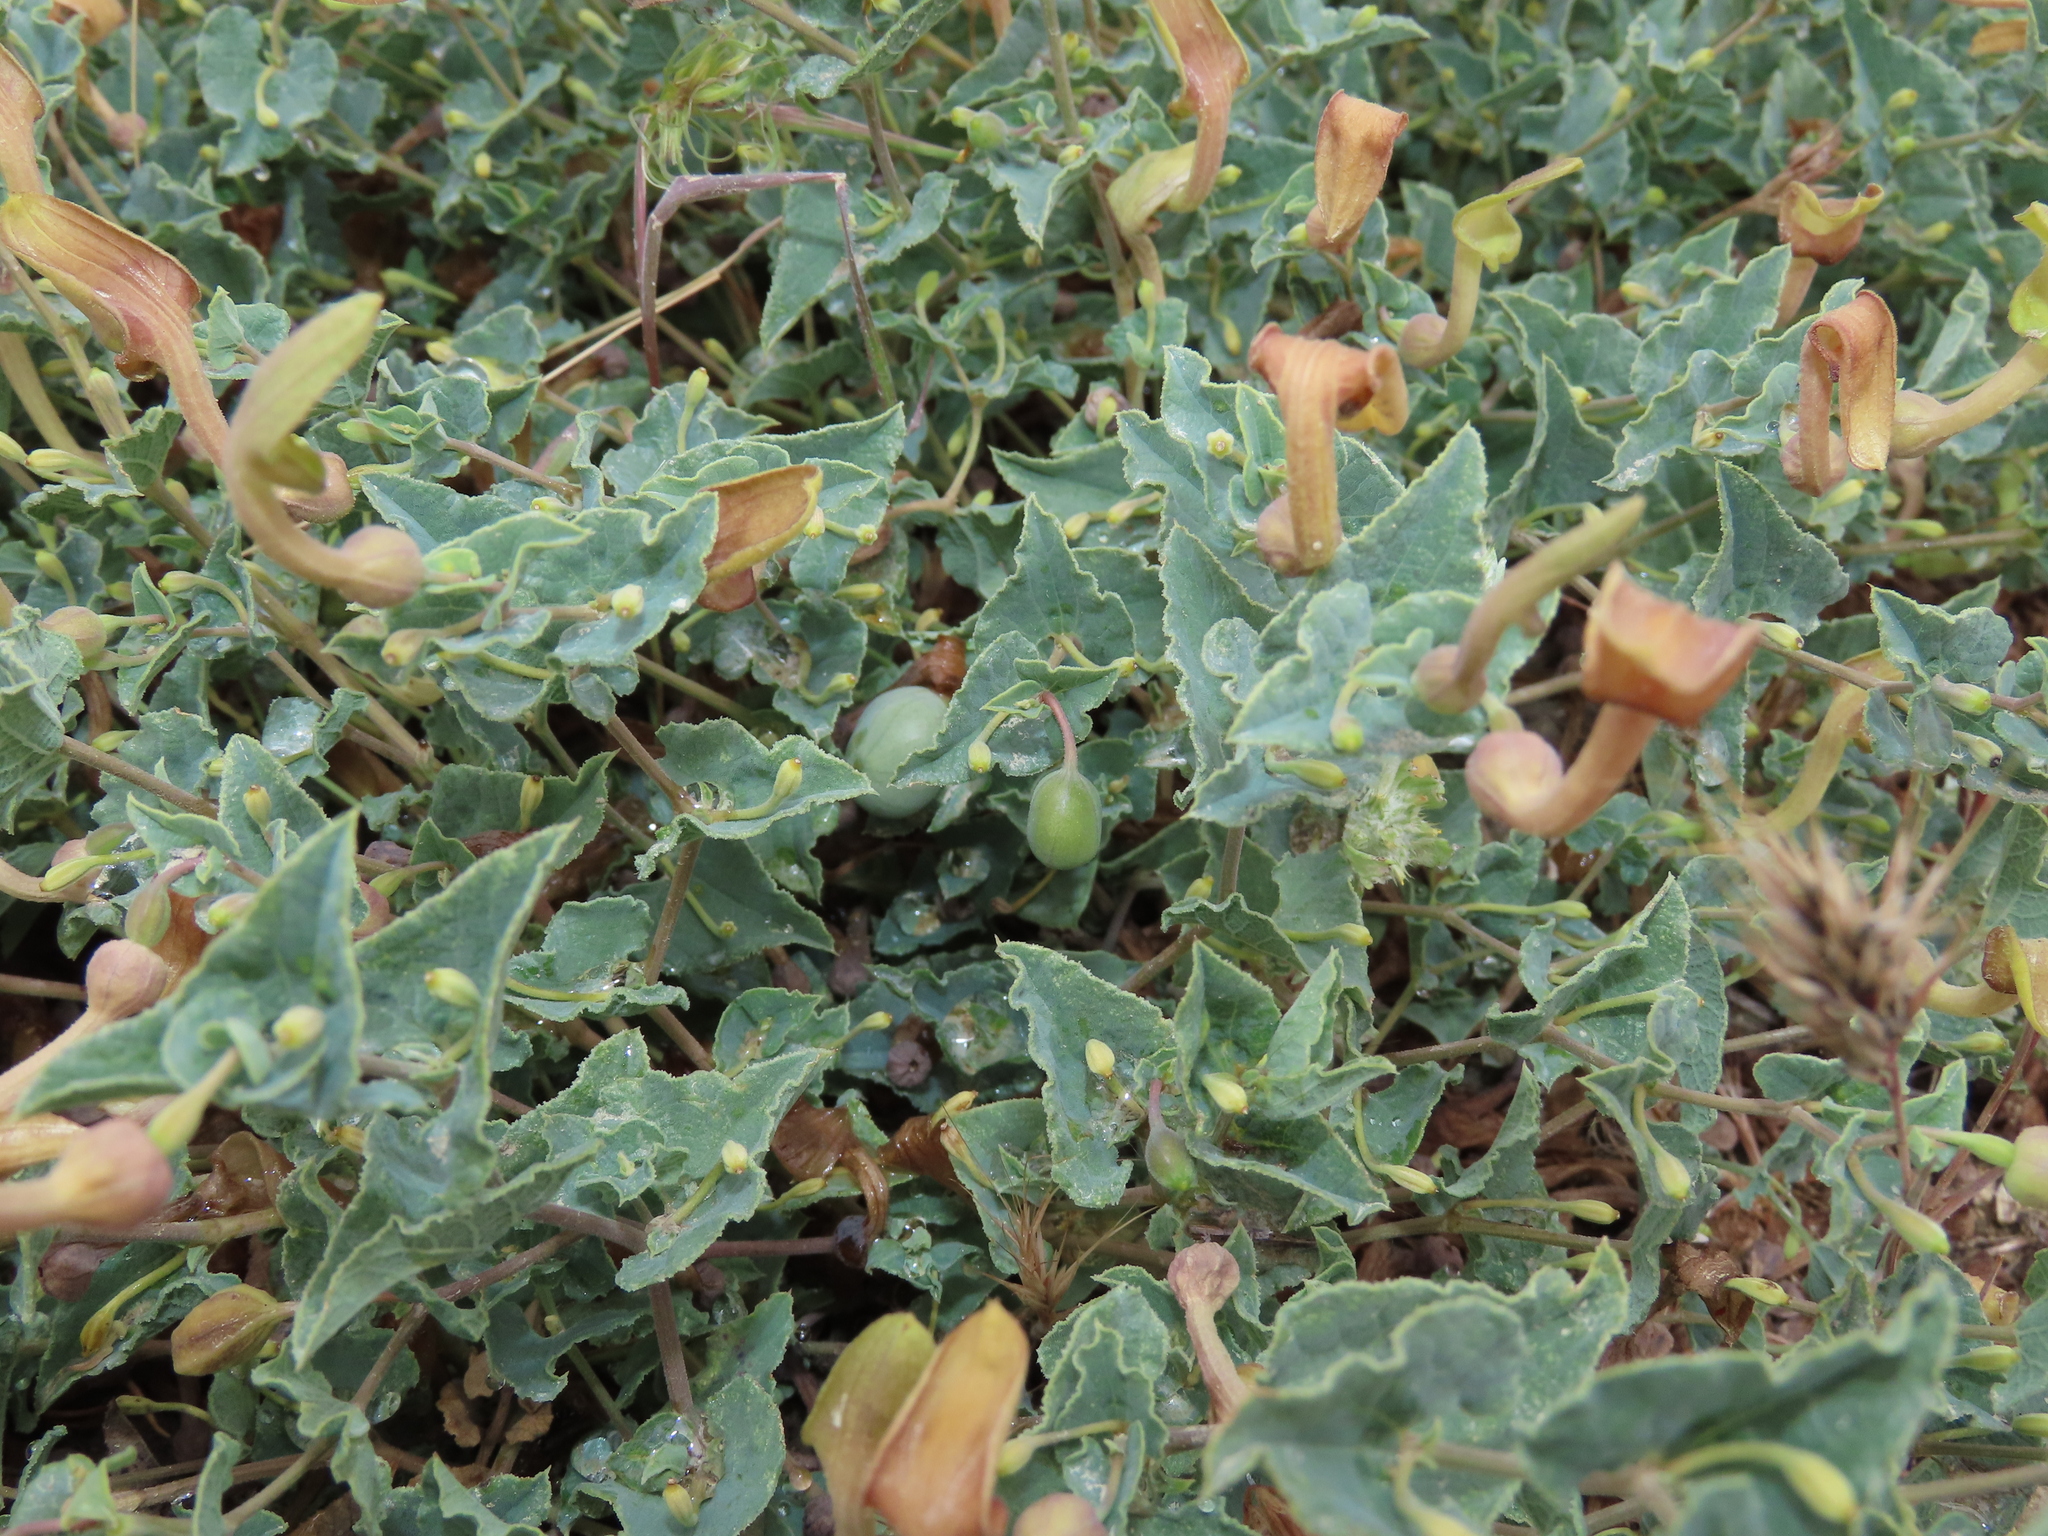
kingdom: Plantae
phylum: Tracheophyta
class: Magnoliopsida
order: Piperales
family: Aristolochiaceae
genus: Aristolochia
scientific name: Aristolochia pistolochia
